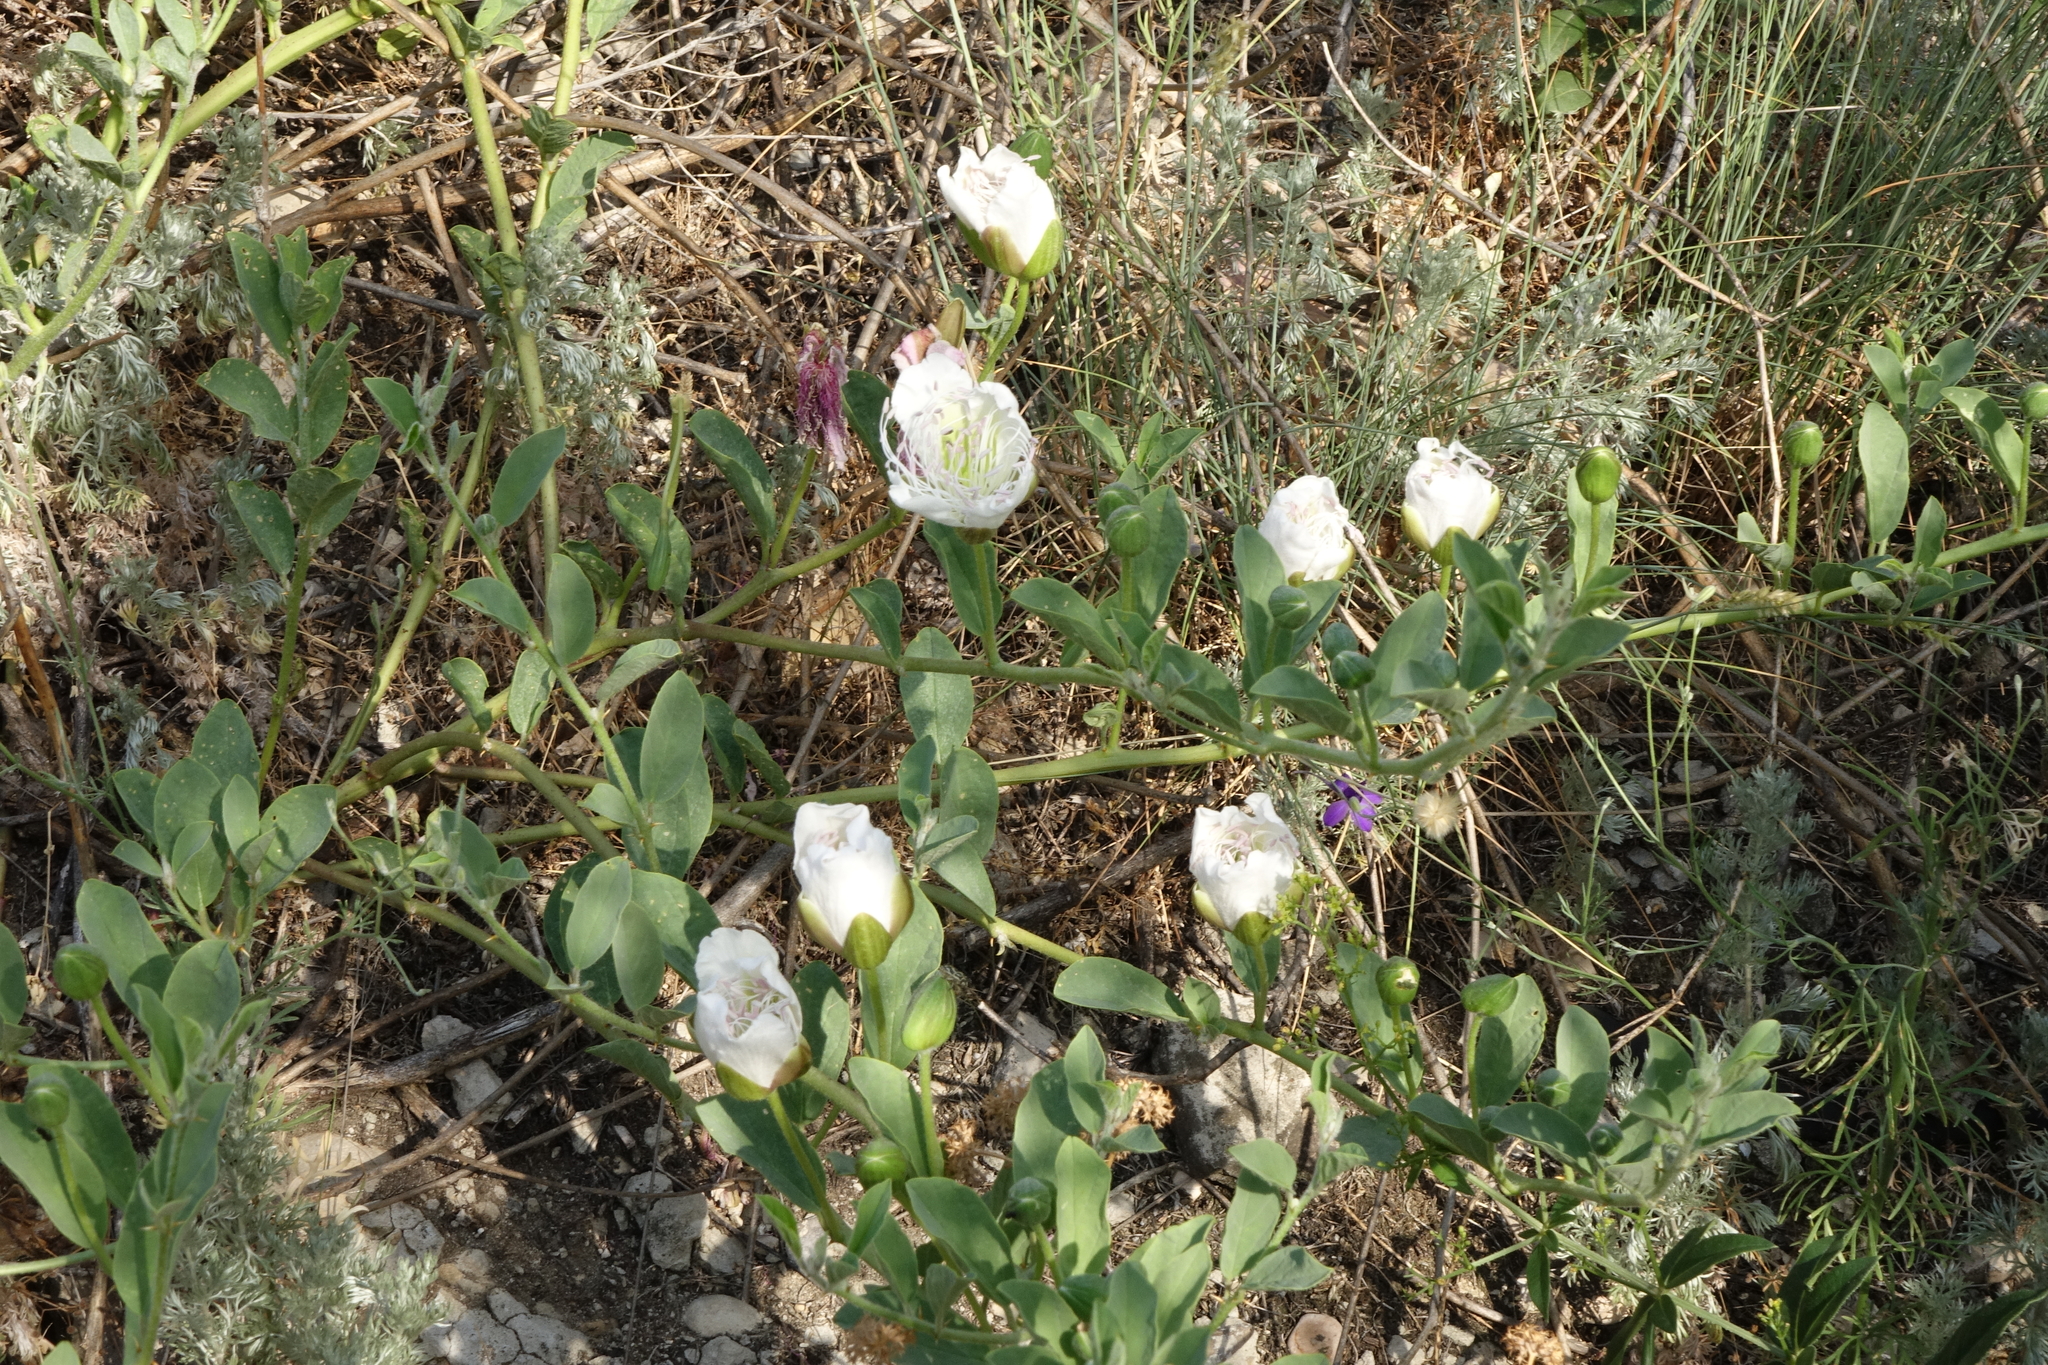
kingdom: Plantae
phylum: Tracheophyta
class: Magnoliopsida
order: Brassicales
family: Capparaceae
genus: Capparis
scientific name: Capparis spinosa
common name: Caper
